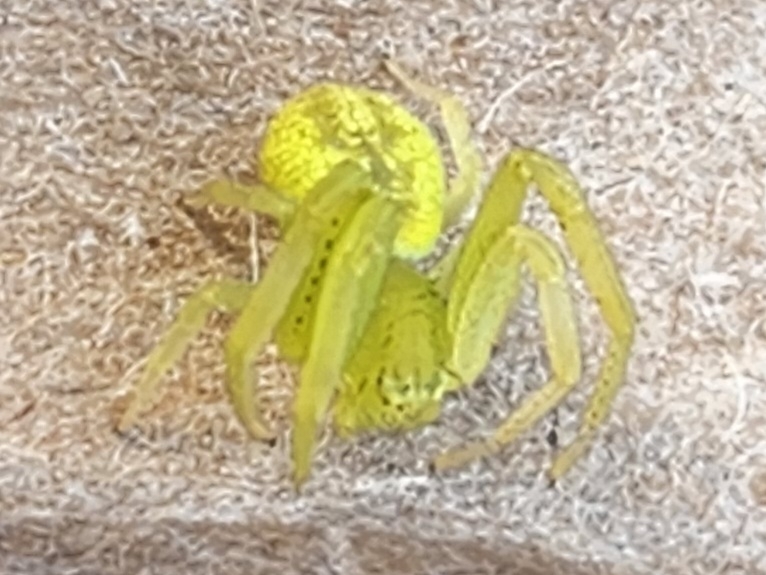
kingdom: Animalia
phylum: Arthropoda
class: Arachnida
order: Araneae
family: Thomisidae
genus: Mecaphesa
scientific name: Mecaphesa revillagigedoensis
